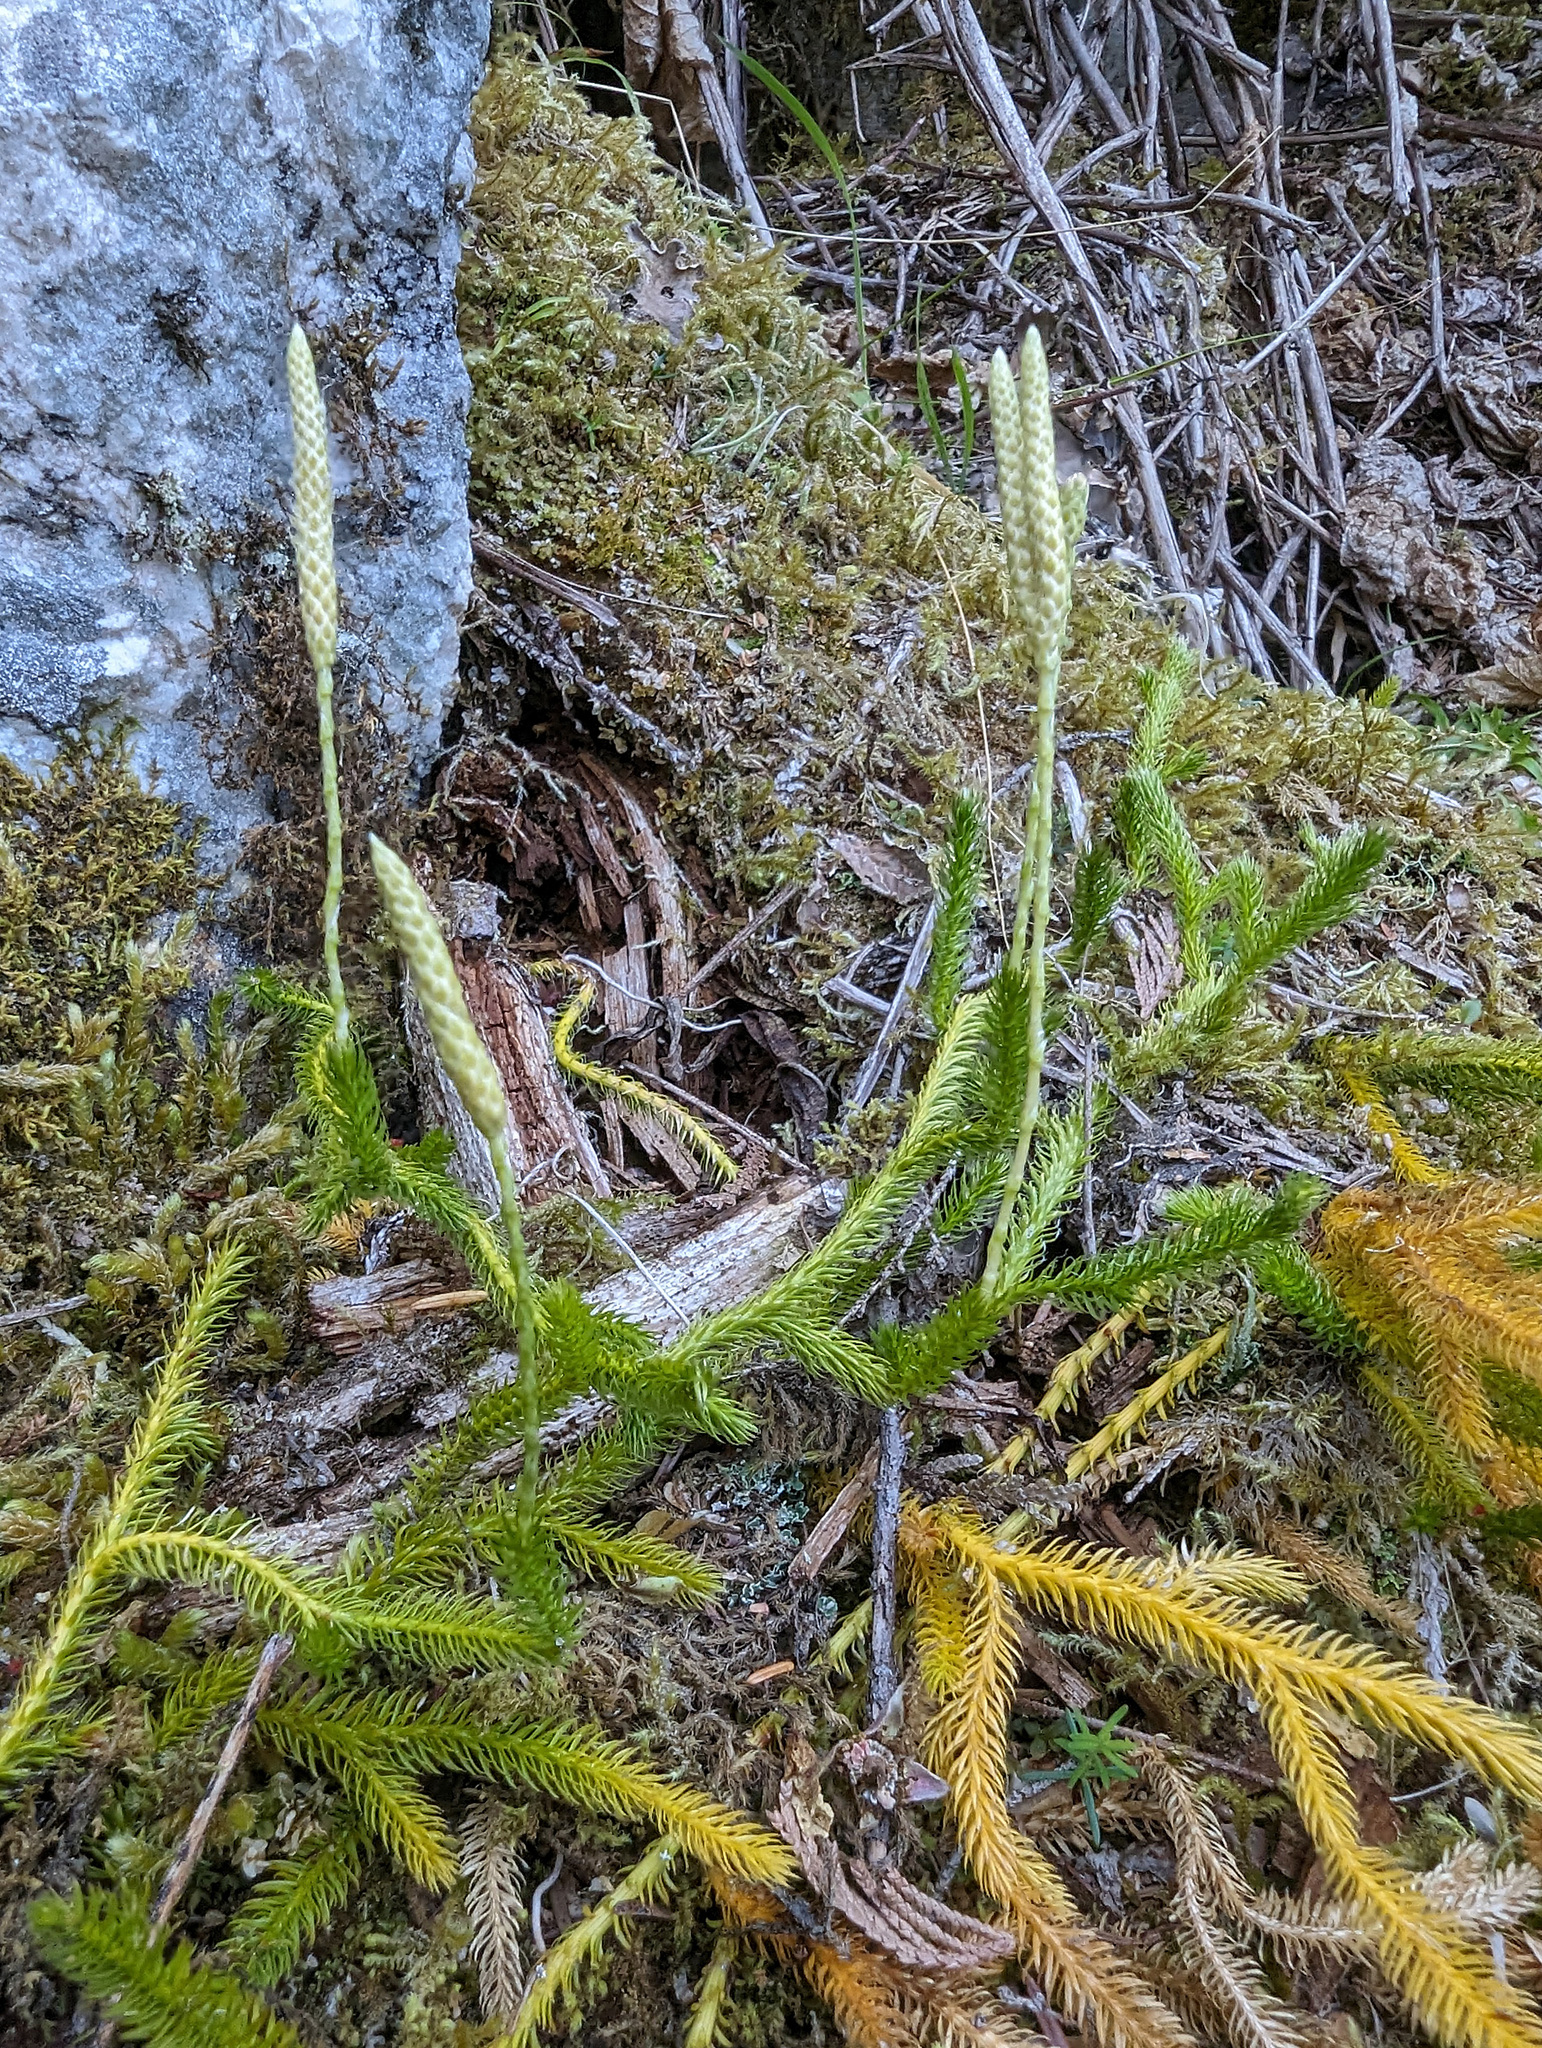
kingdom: Plantae
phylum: Tracheophyta
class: Lycopodiopsida
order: Lycopodiales
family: Lycopodiaceae
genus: Lycopodium
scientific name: Lycopodium lagopus
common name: One-cone clubmoss
